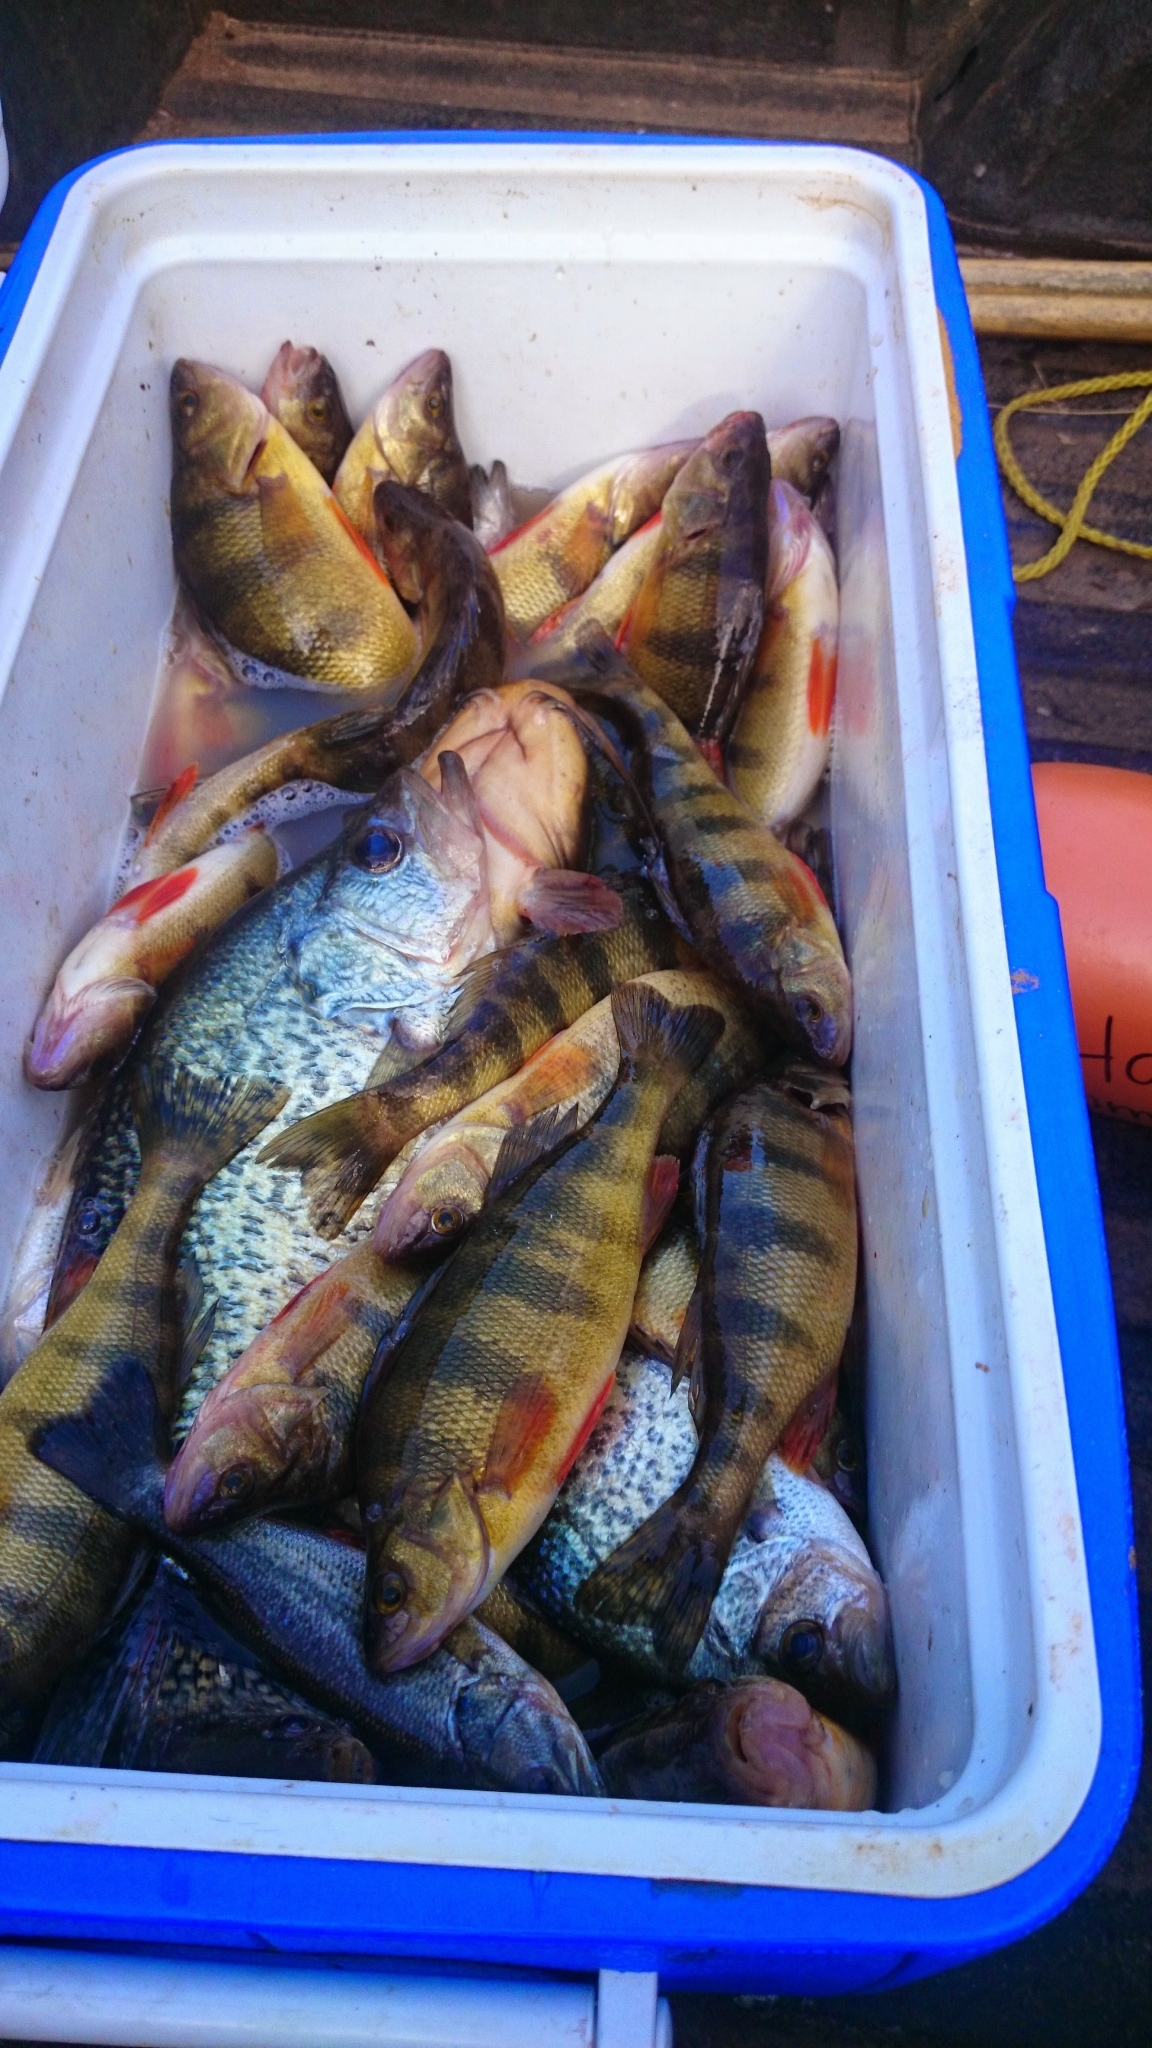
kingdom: Animalia
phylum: Chordata
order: Perciformes
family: Percidae
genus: Perca
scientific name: Perca flavescens
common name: Yellow perch
